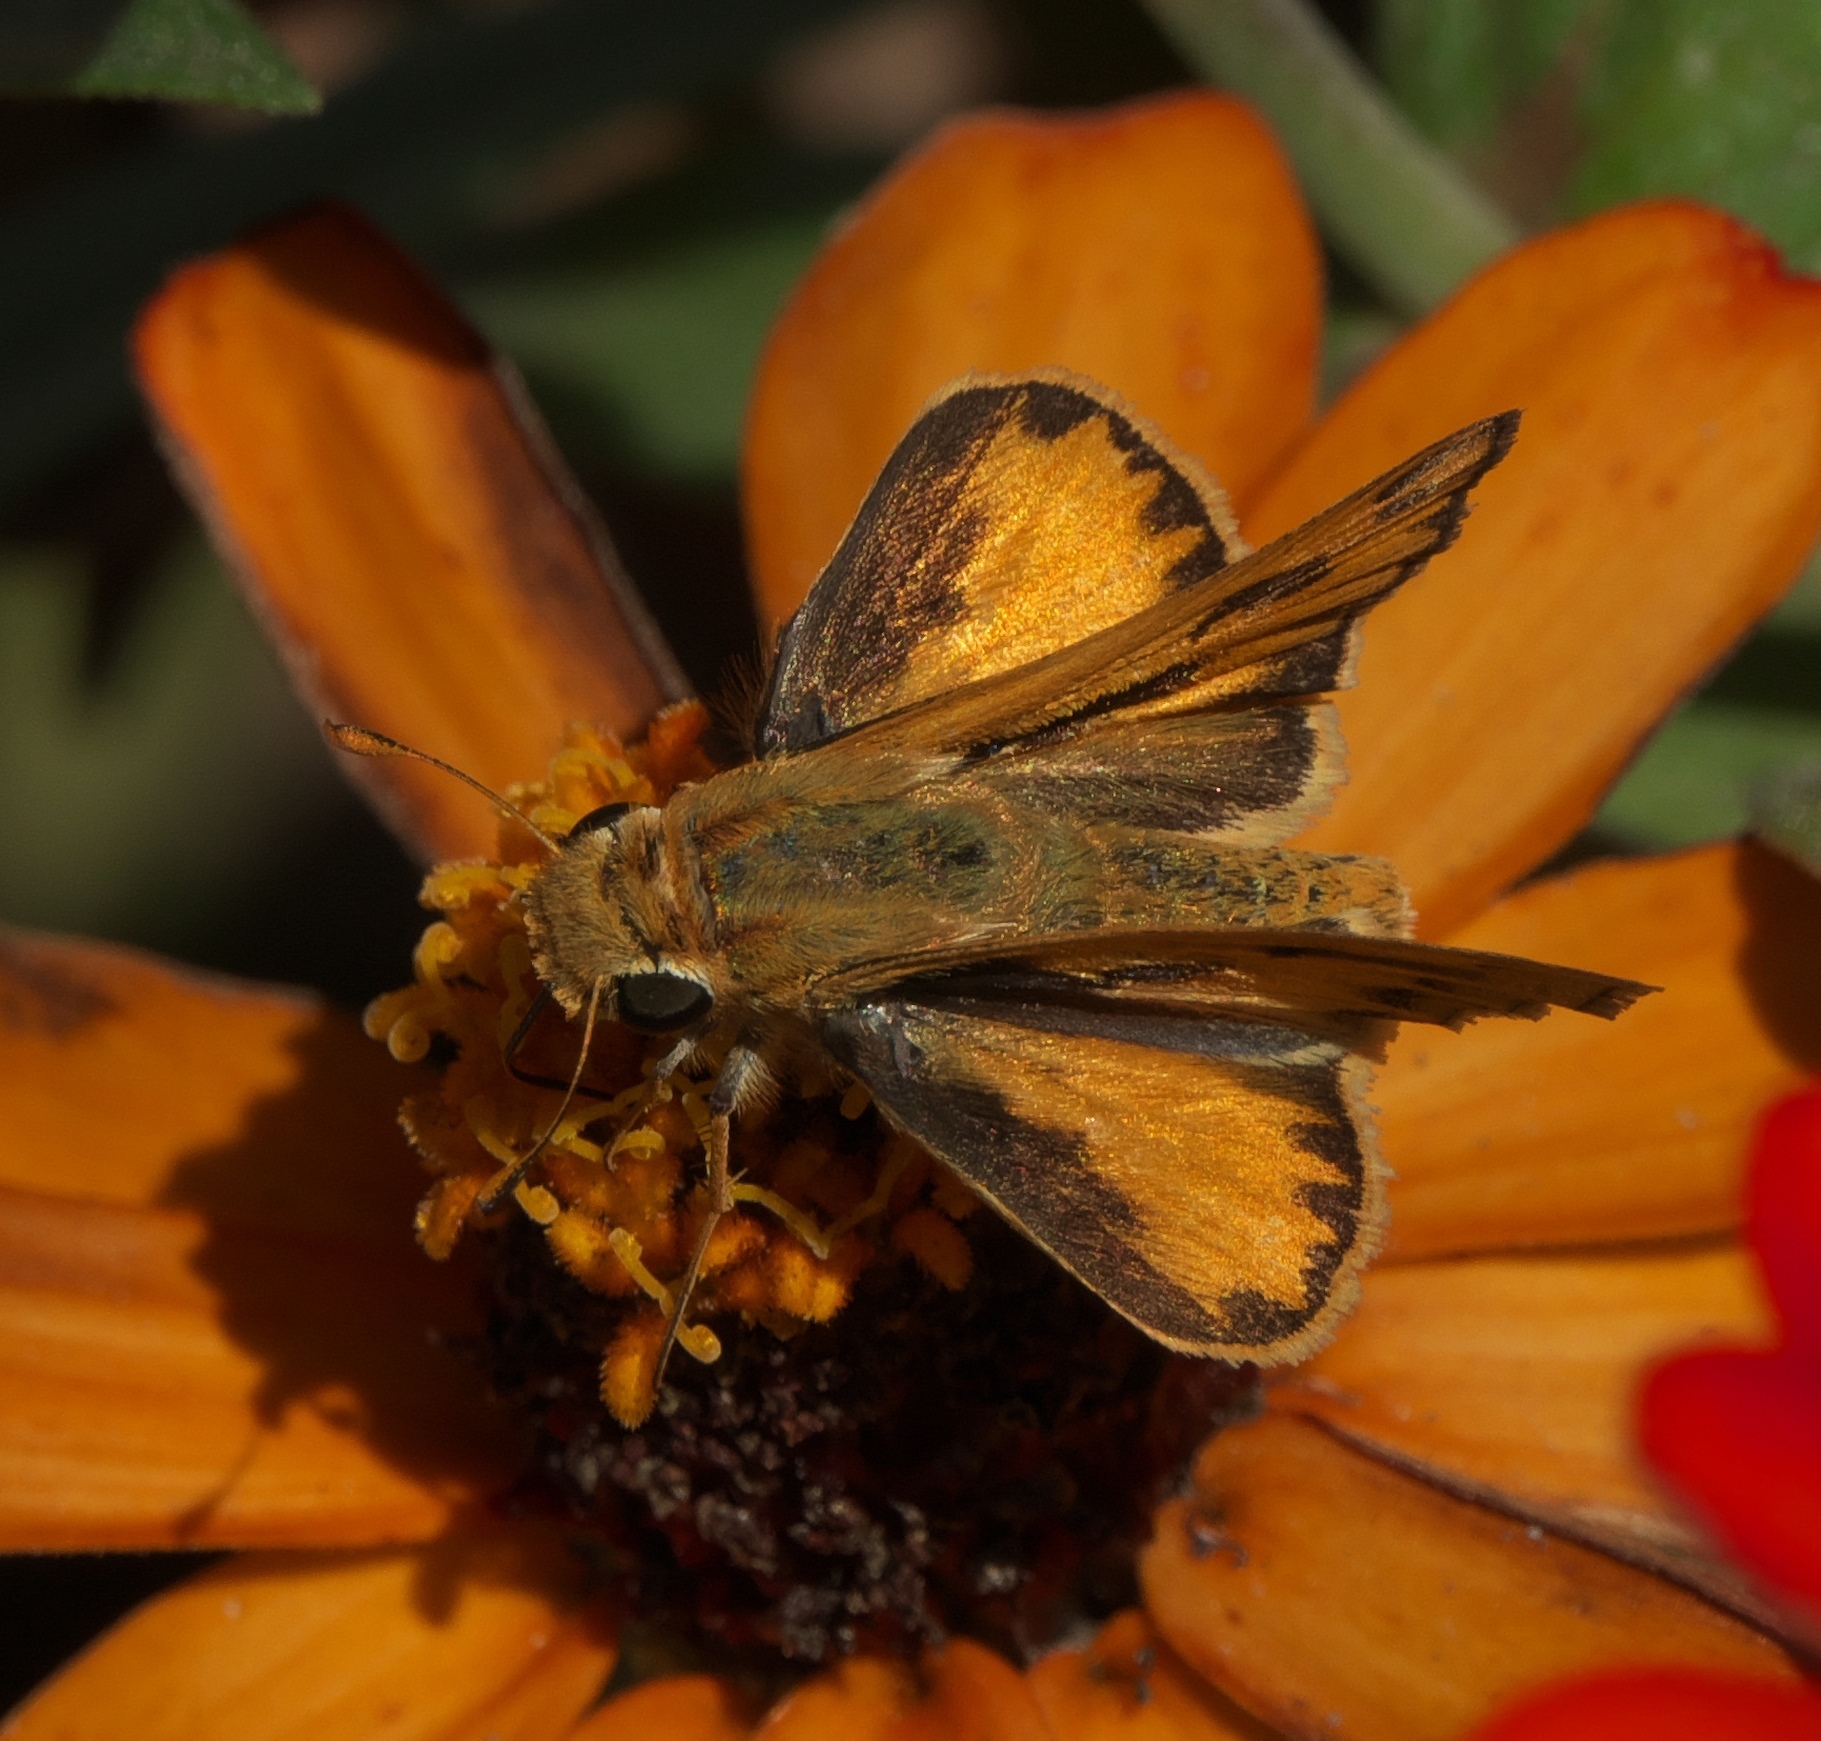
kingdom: Animalia
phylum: Arthropoda
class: Insecta
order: Lepidoptera
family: Hesperiidae
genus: Hylephila
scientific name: Hylephila phyleus
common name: Fiery skipper
